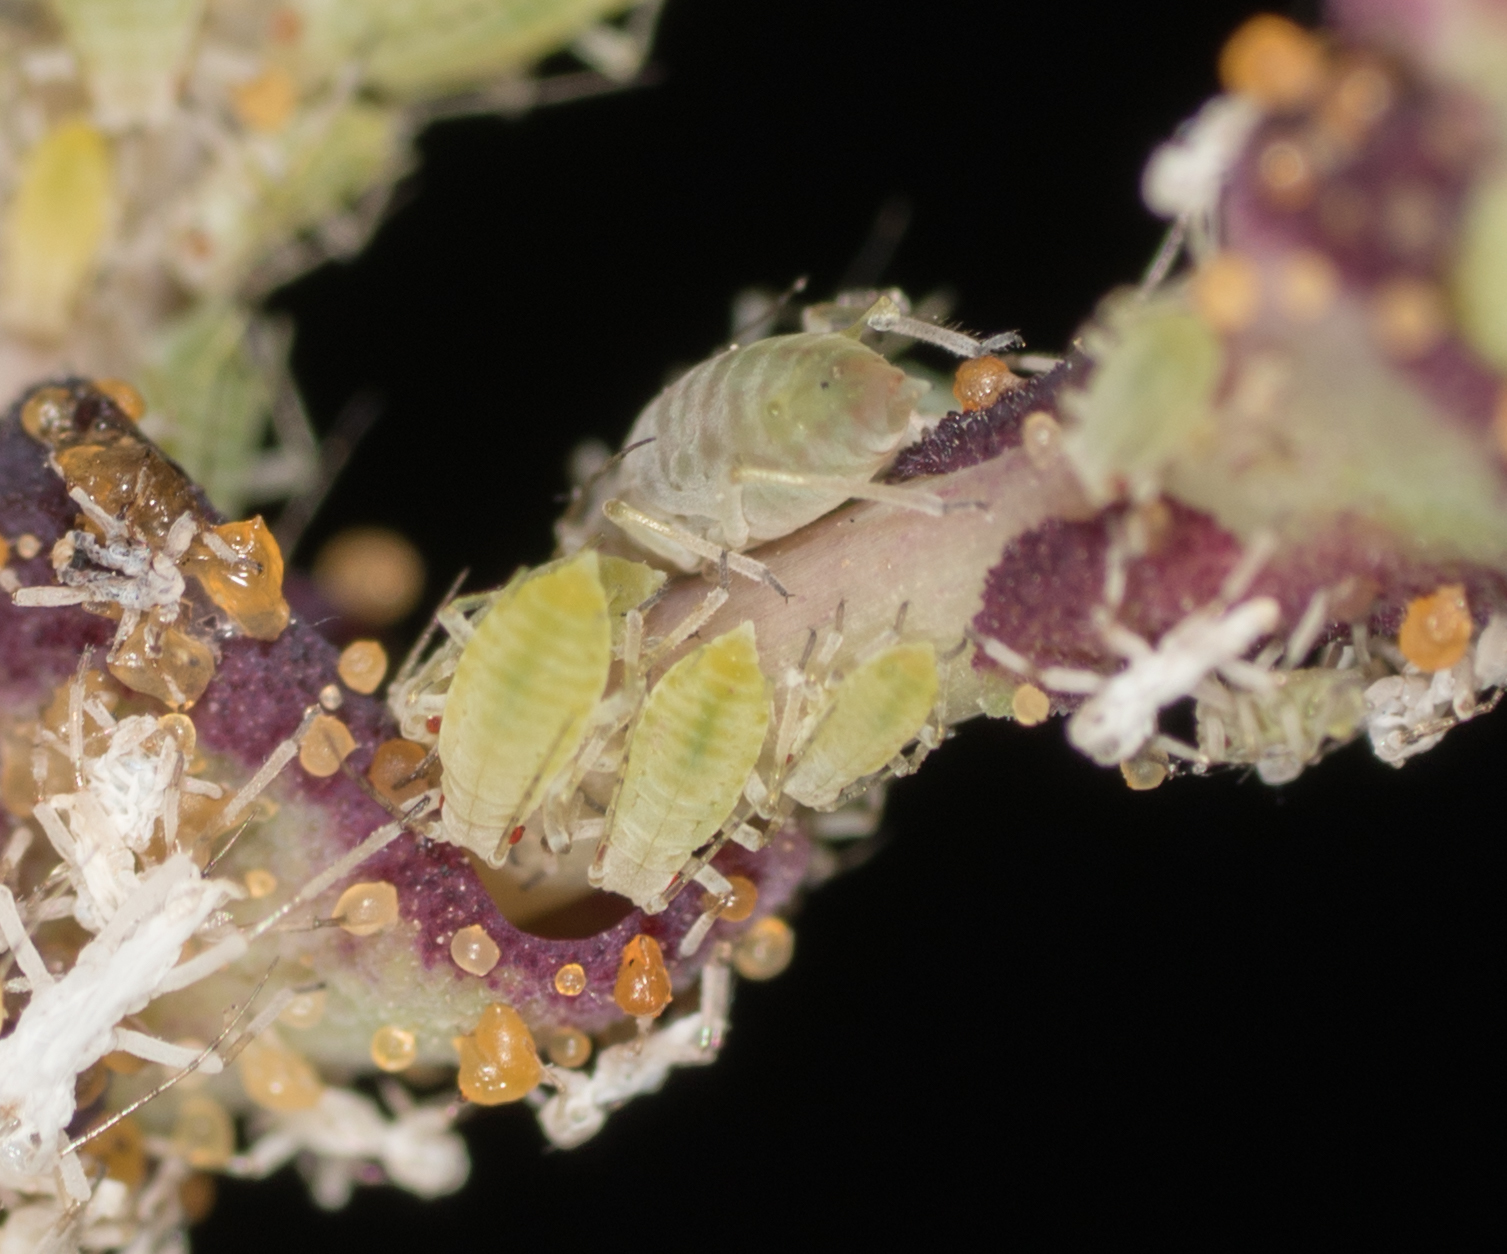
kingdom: Animalia
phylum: Arthropoda
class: Insecta
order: Hemiptera
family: Aphididae
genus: Acyrthosiphon
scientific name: Acyrthosiphon lactucae
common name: Aphid
